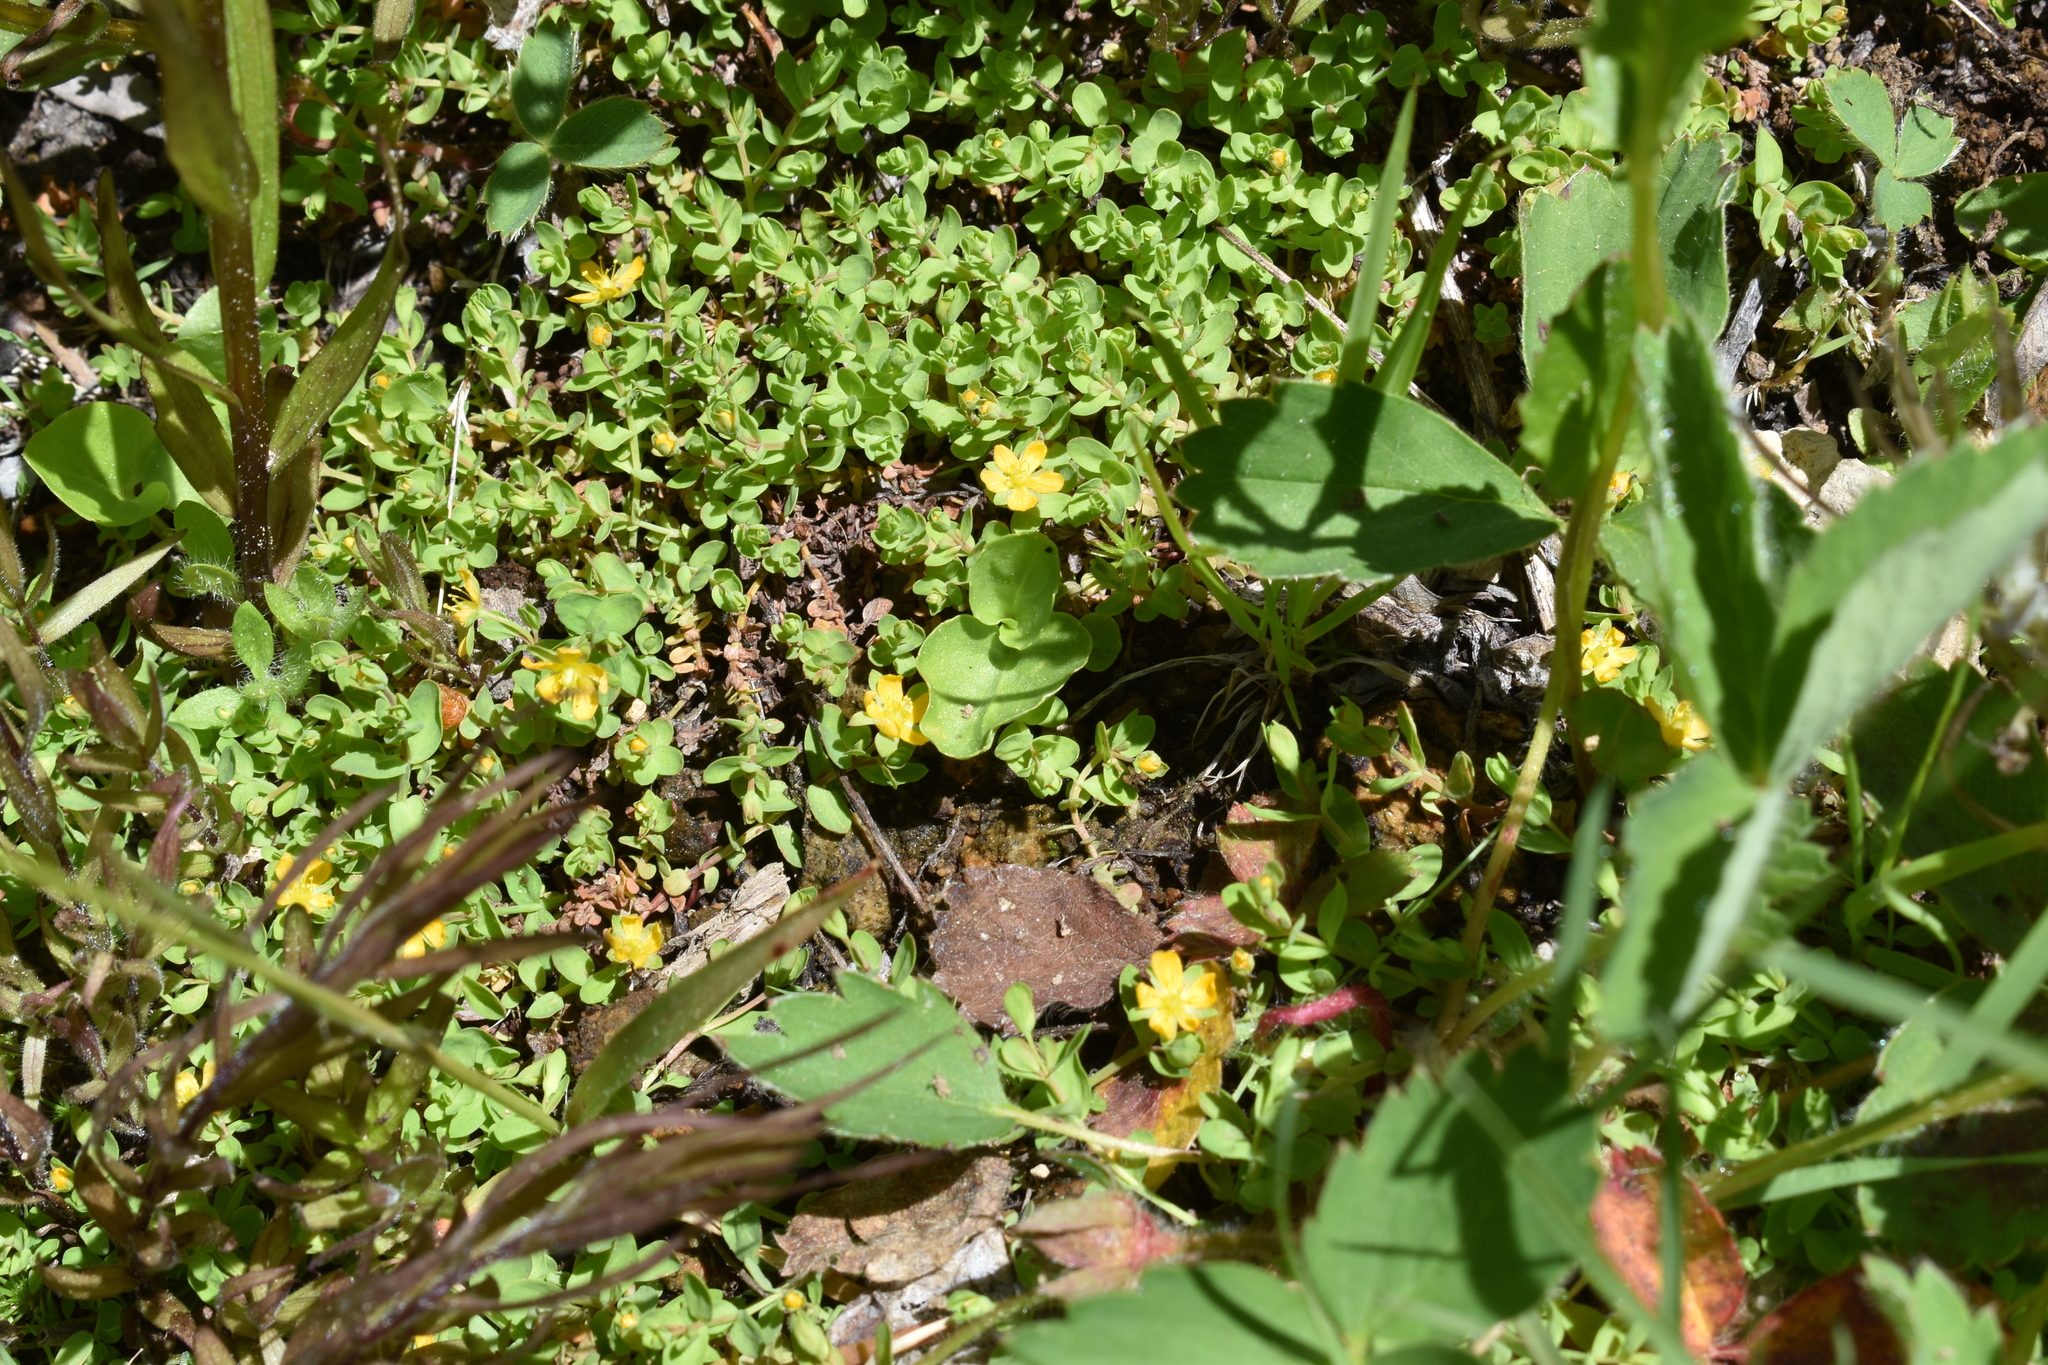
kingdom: Plantae
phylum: Tracheophyta
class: Magnoliopsida
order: Malpighiales
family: Hypericaceae
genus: Hypericum
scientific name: Hypericum anagalloides
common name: Bog st. john's-wort
